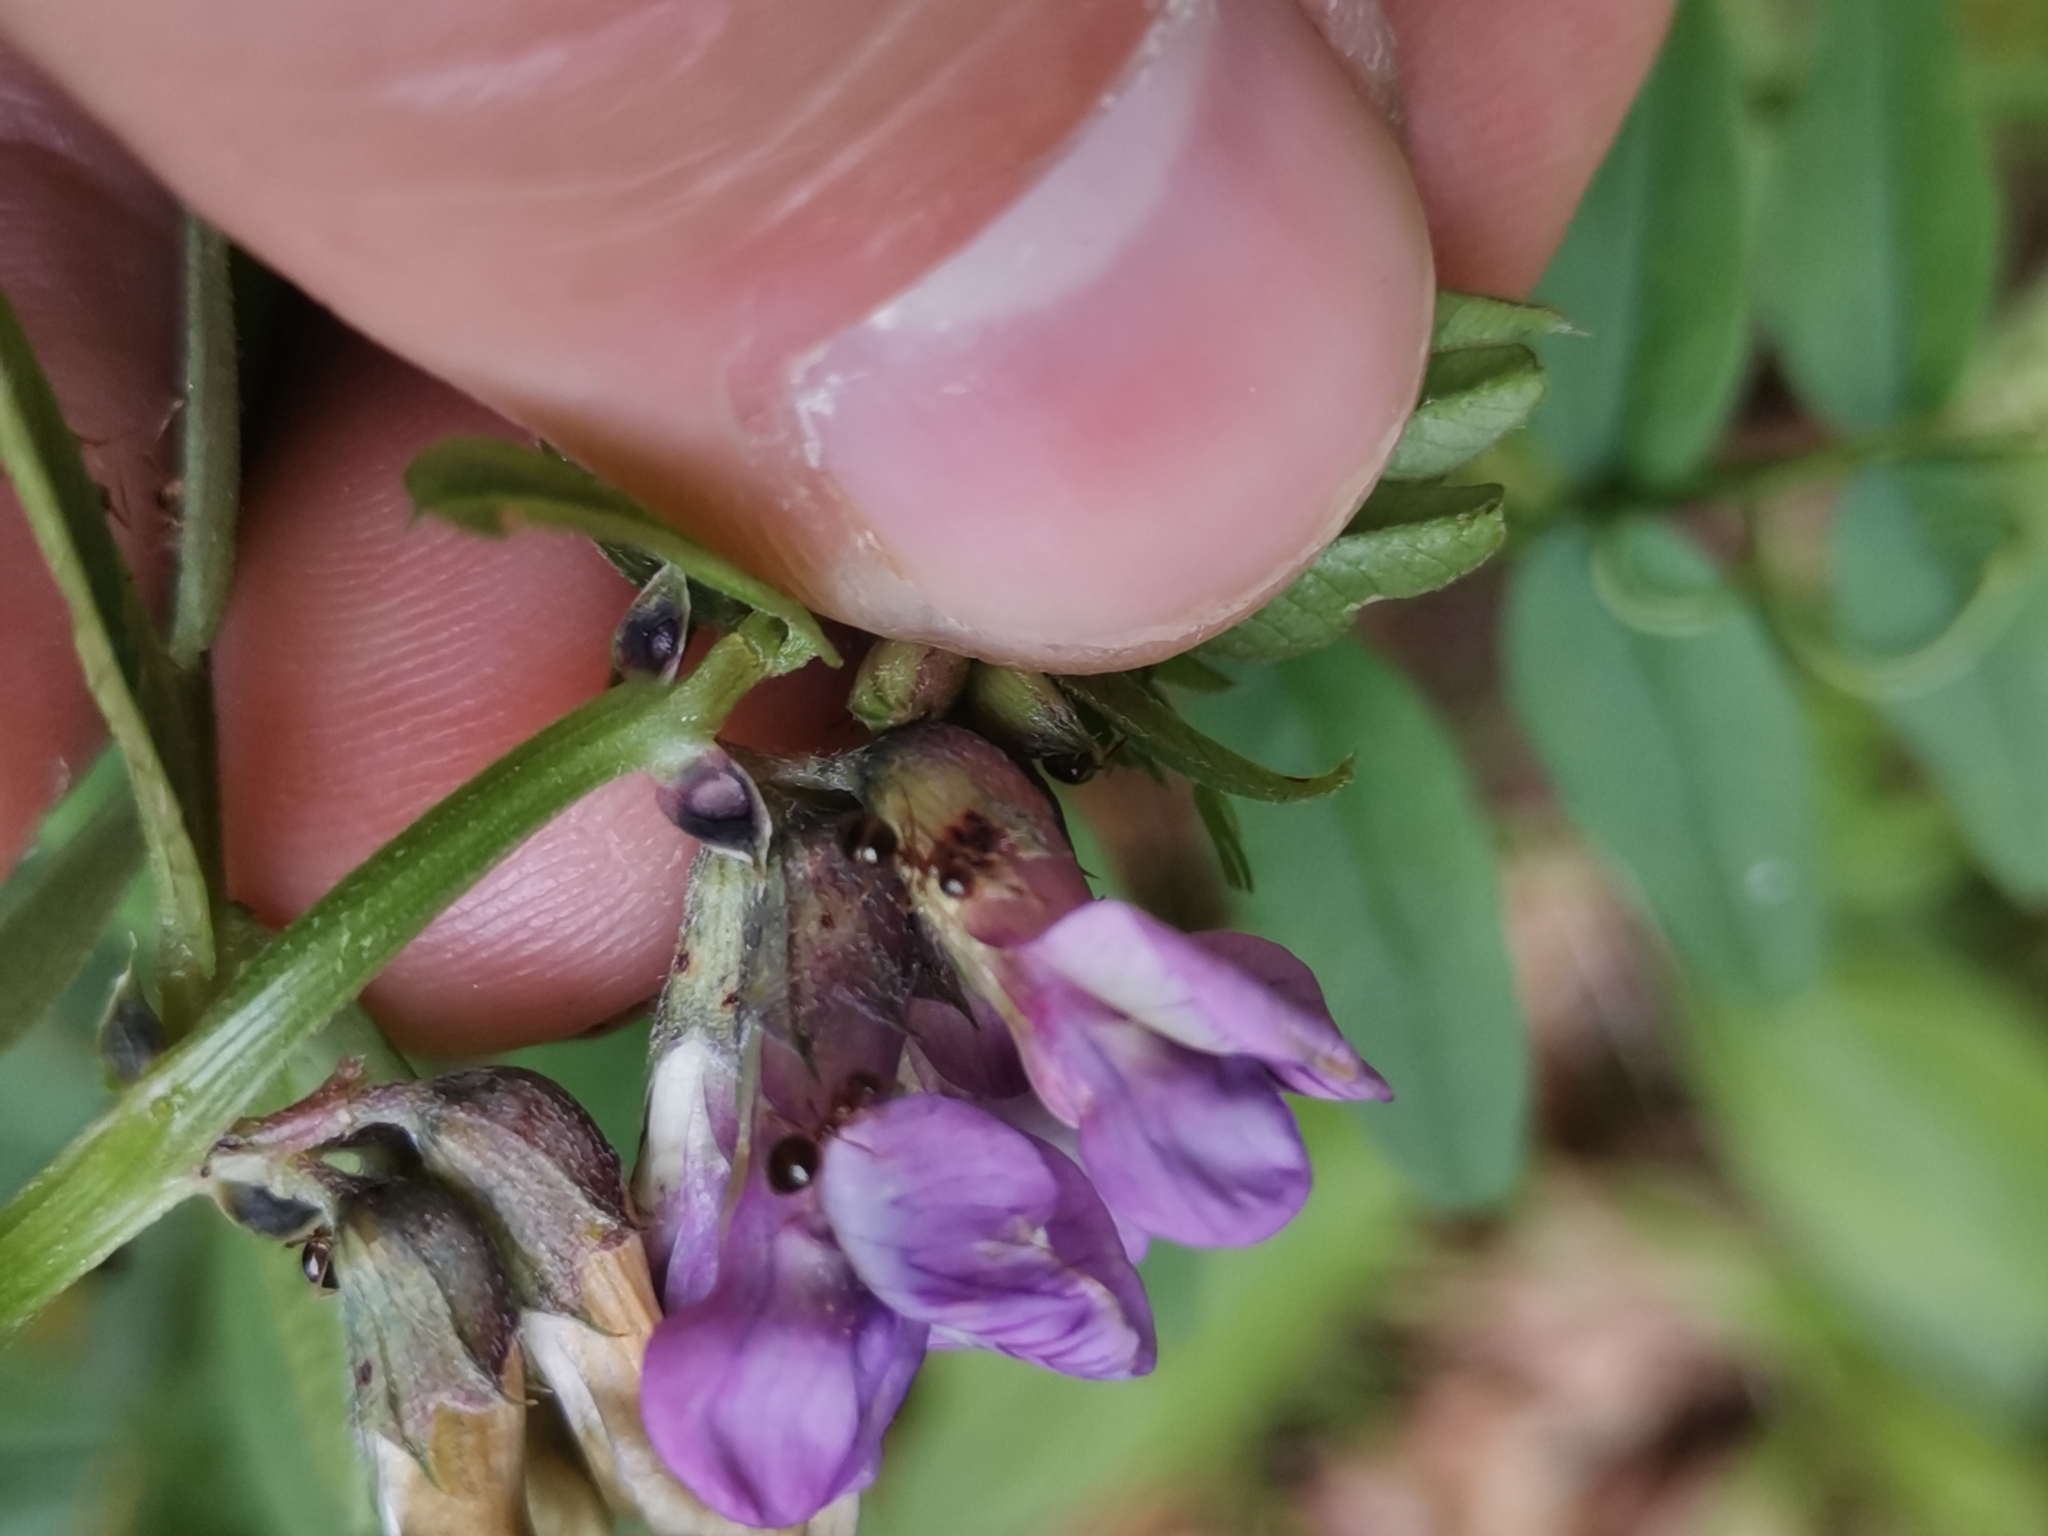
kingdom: Plantae
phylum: Tracheophyta
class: Magnoliopsida
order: Fabales
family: Fabaceae
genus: Vicia
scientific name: Vicia sepium
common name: Bush vetch
